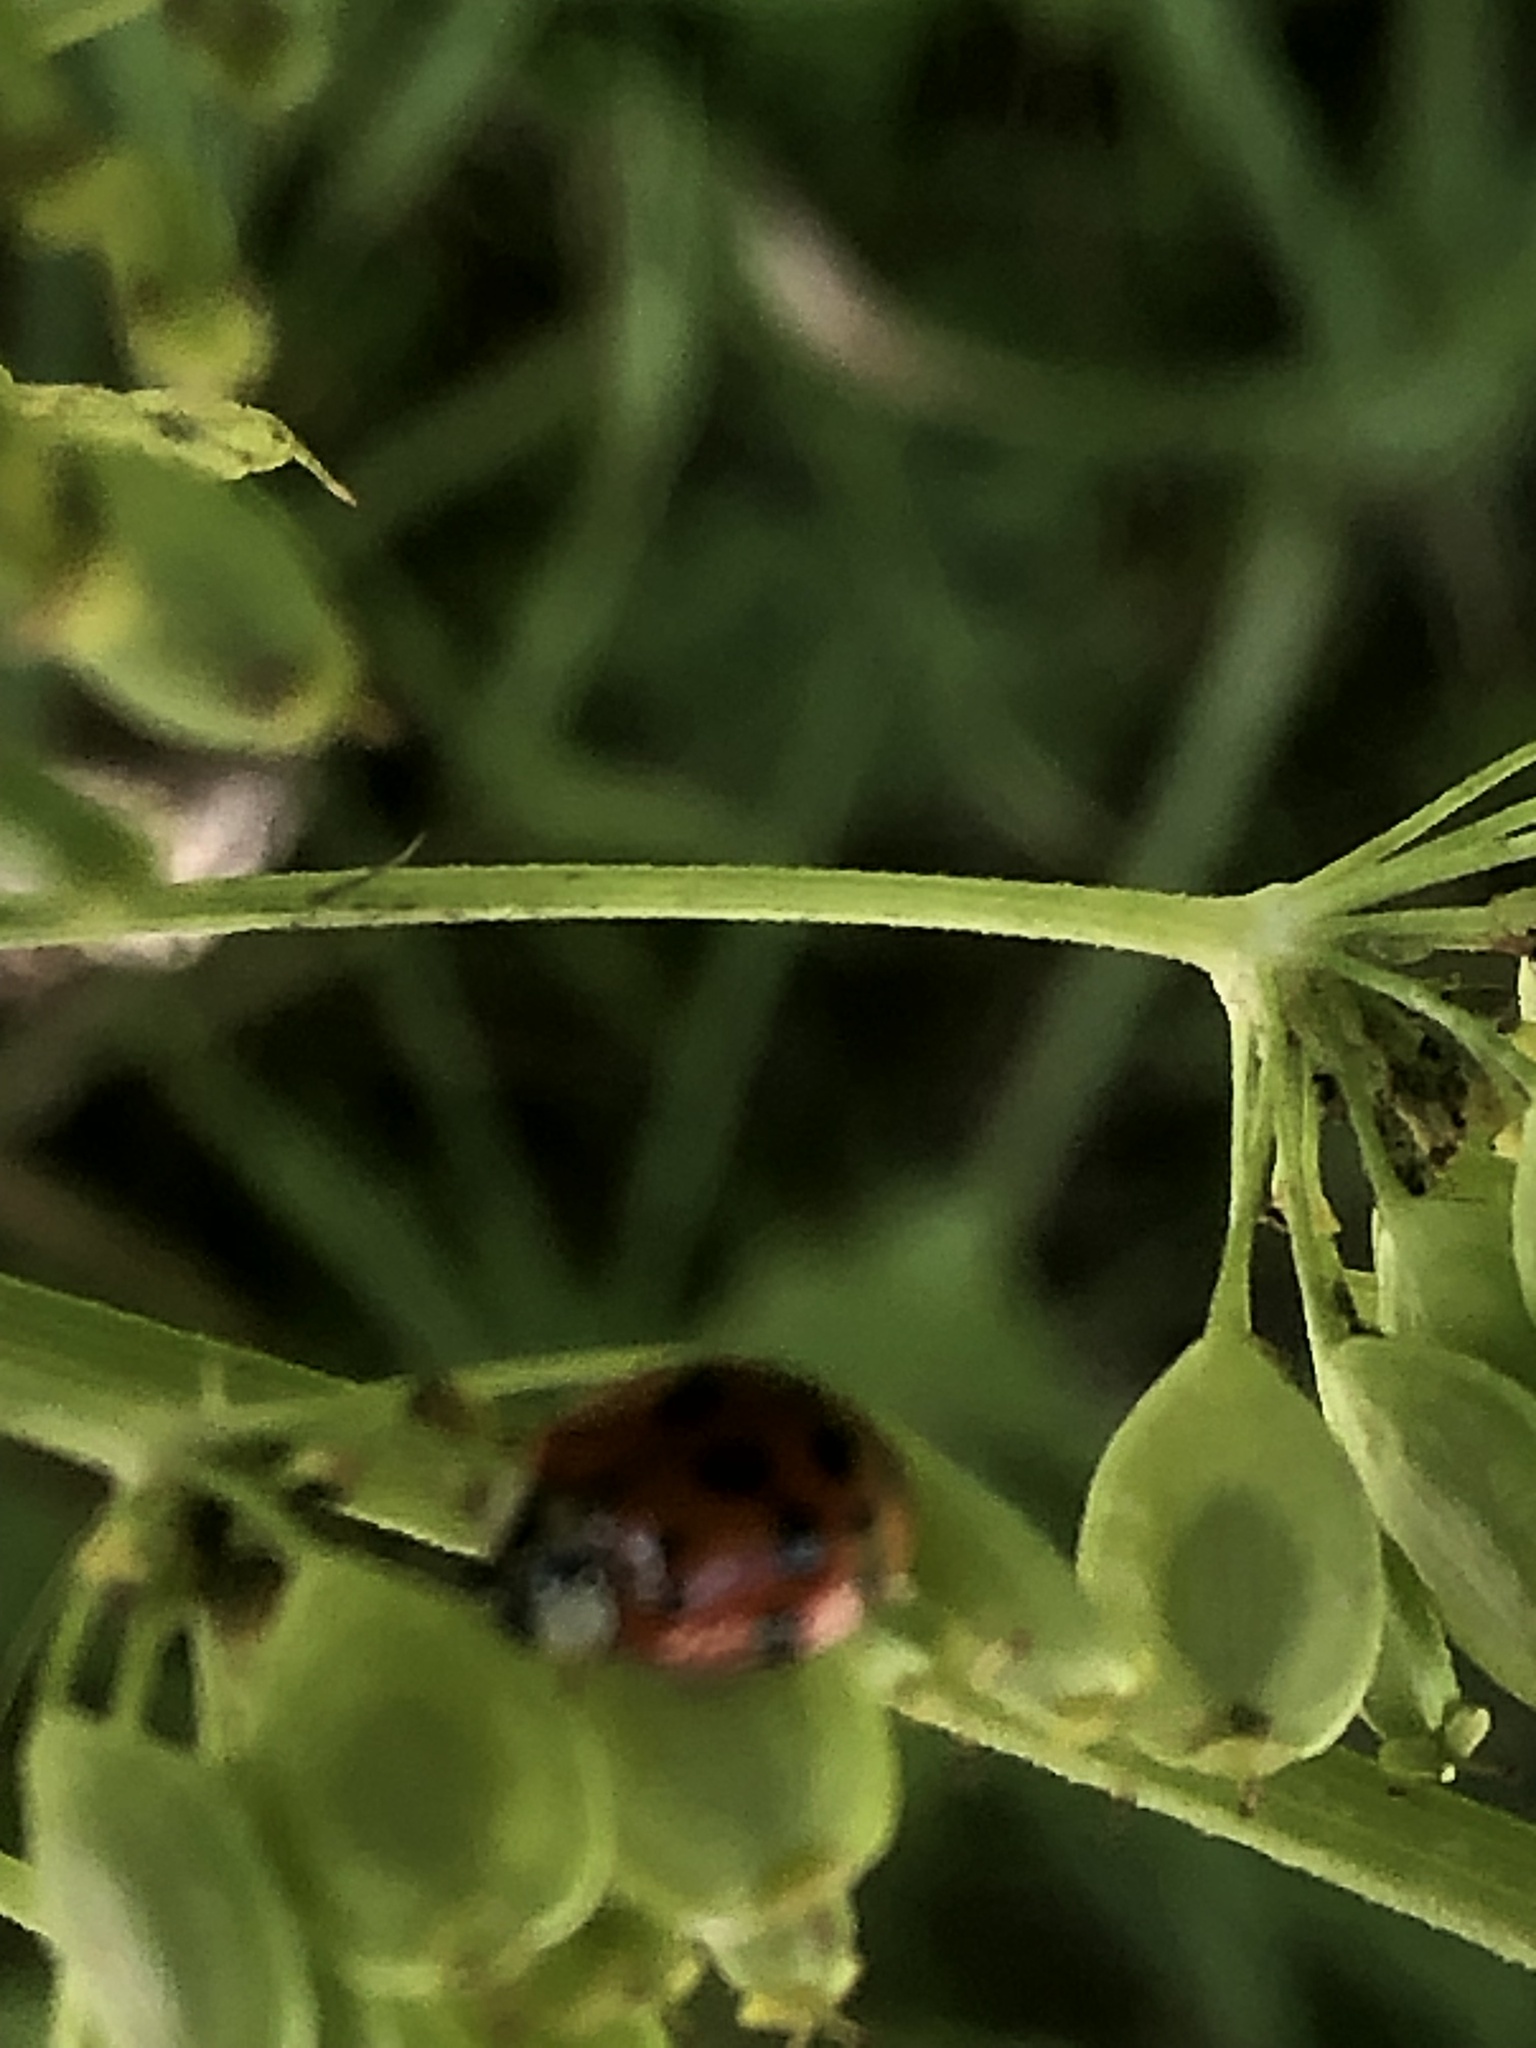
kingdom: Animalia
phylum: Arthropoda
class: Insecta
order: Coleoptera
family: Coccinellidae
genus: Harmonia
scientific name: Harmonia axyridis
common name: Harlequin ladybird
